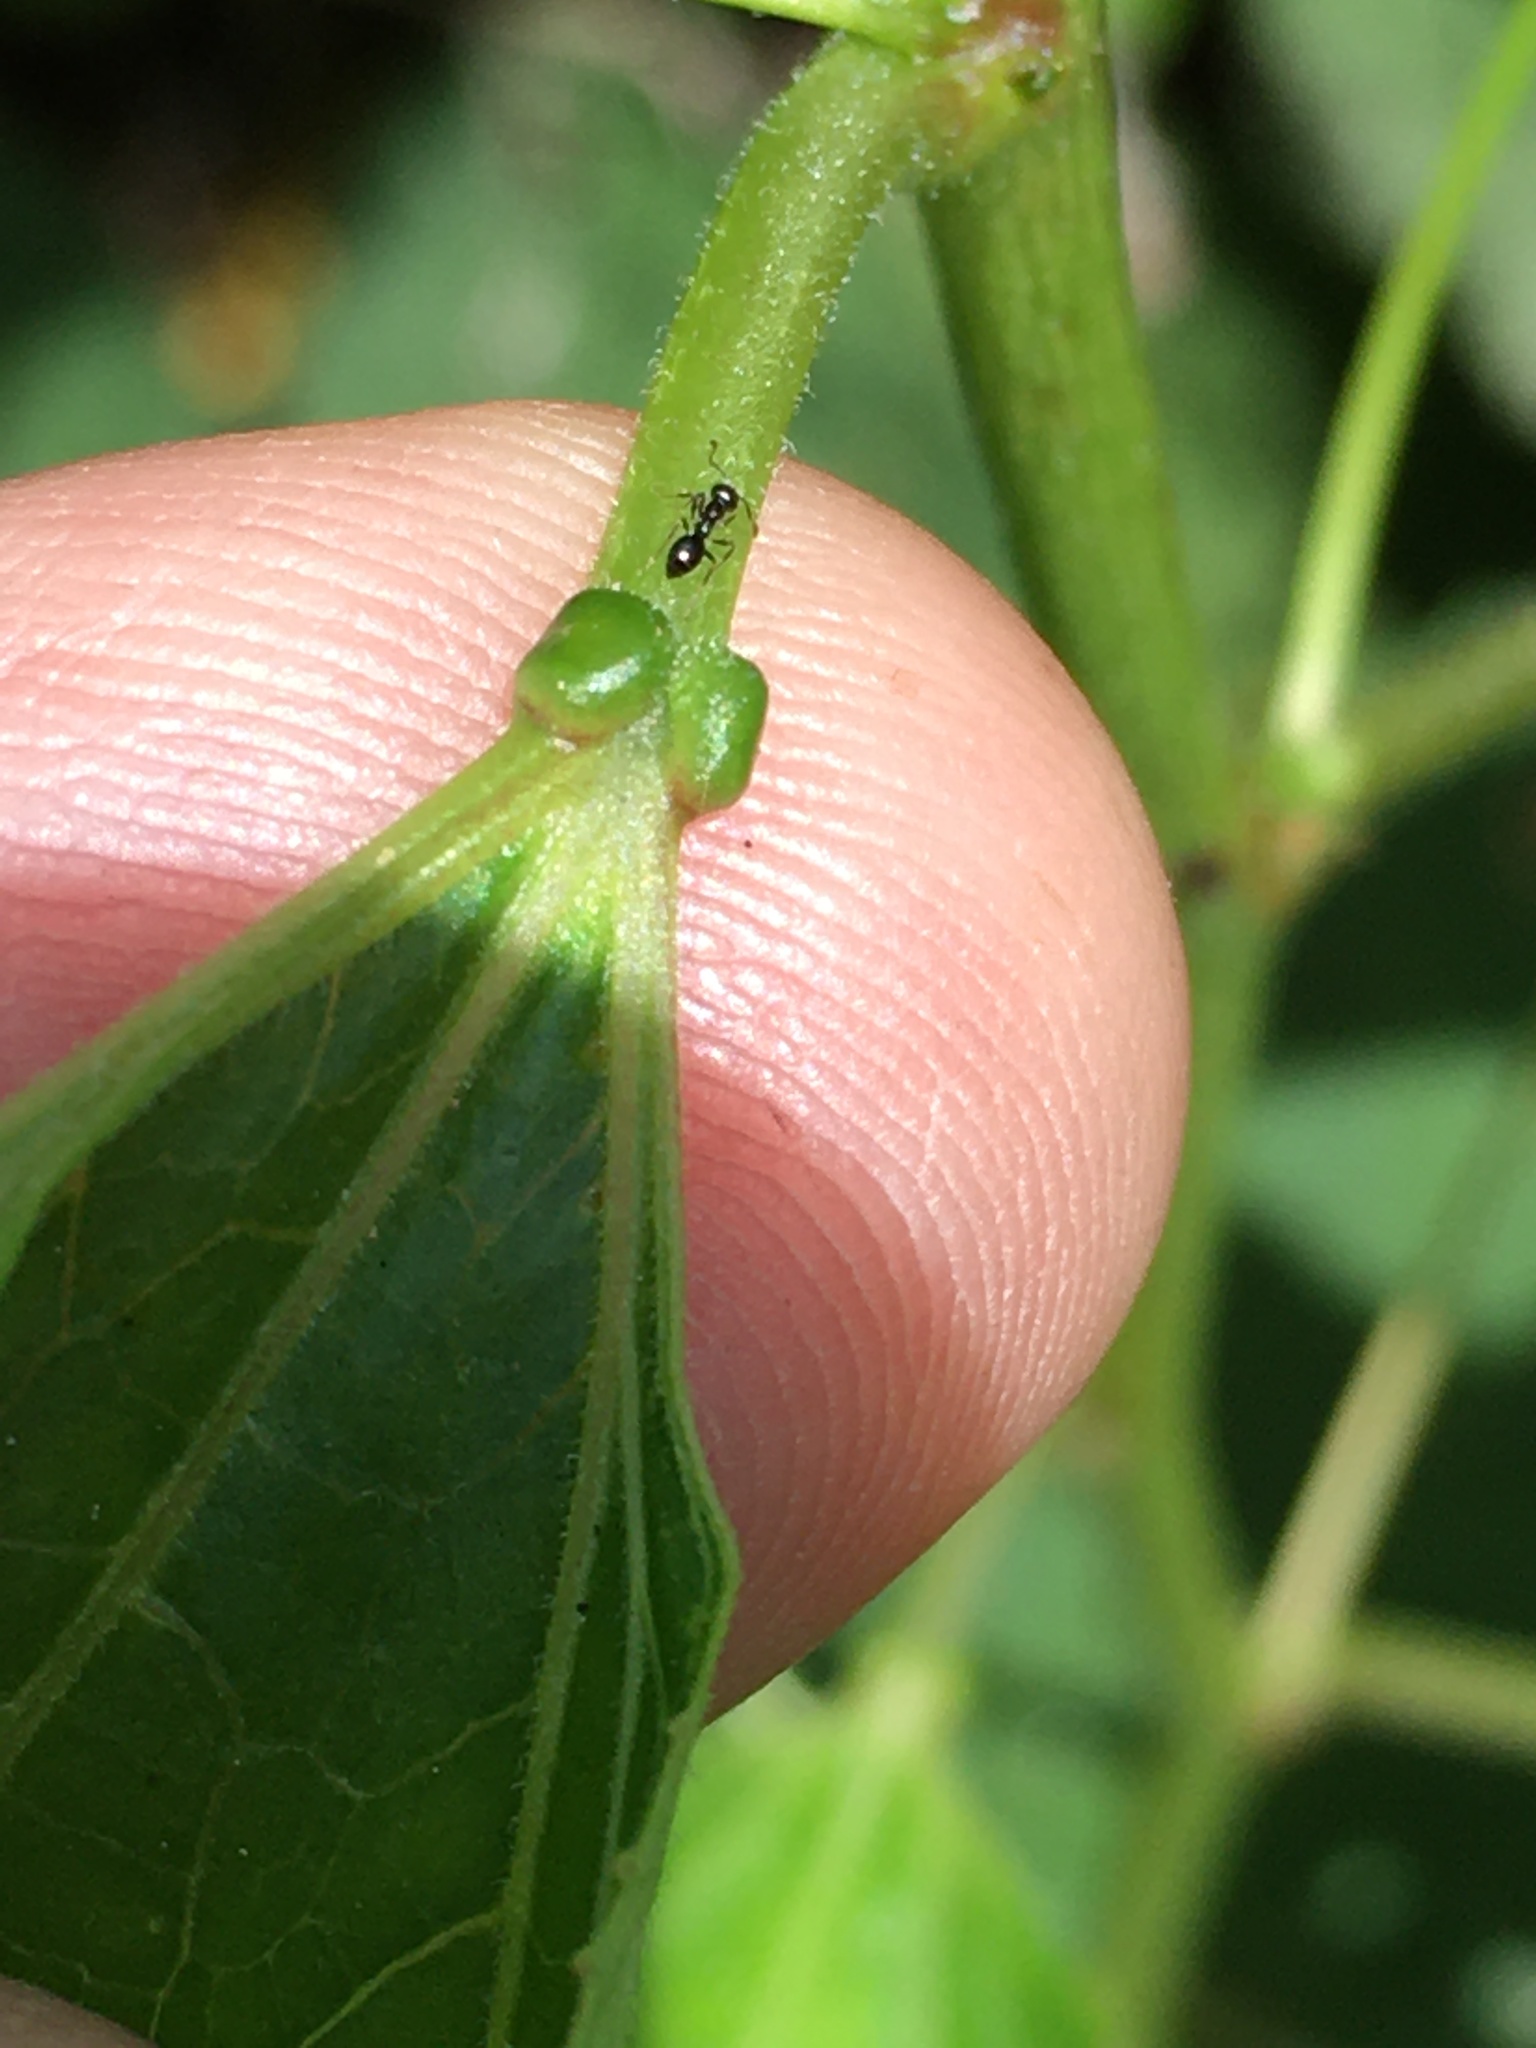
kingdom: Plantae
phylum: Tracheophyta
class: Magnoliopsida
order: Malpighiales
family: Passifloraceae
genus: Passiflora
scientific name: Passiflora incarnata
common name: Apricot-vine
